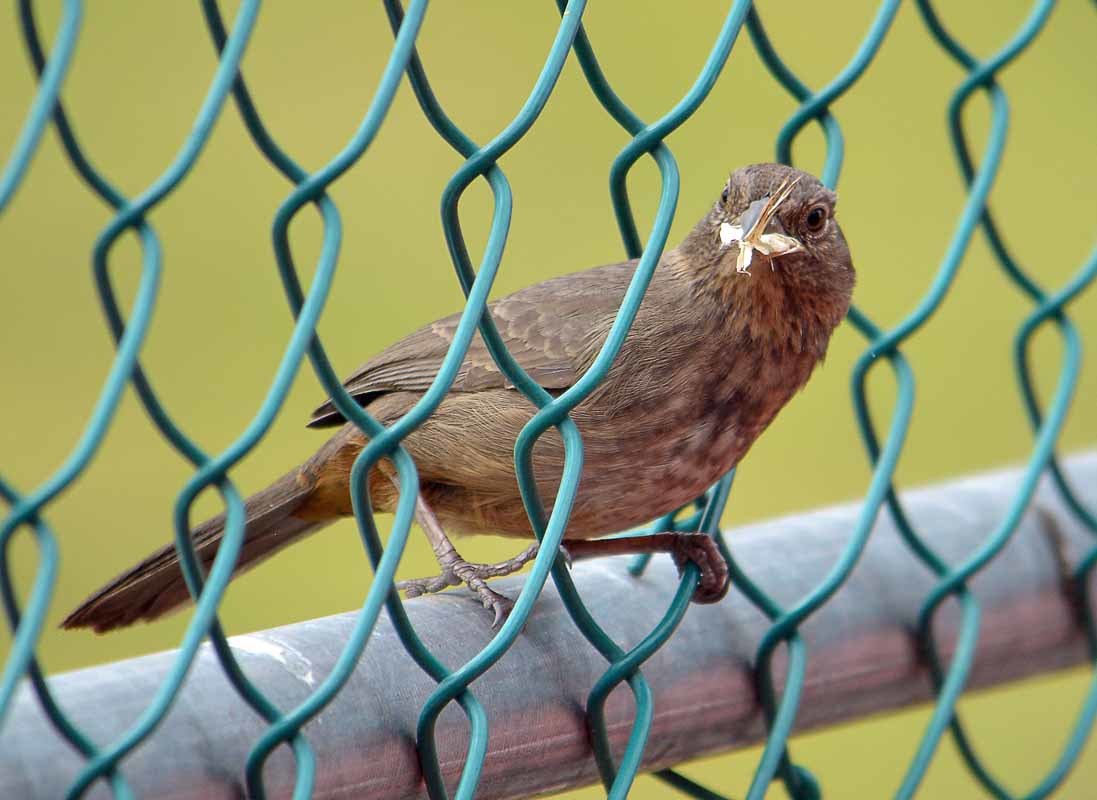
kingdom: Animalia
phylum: Chordata
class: Aves
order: Passeriformes
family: Passerellidae
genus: Melozone
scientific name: Melozone fusca
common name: Canyon towhee
